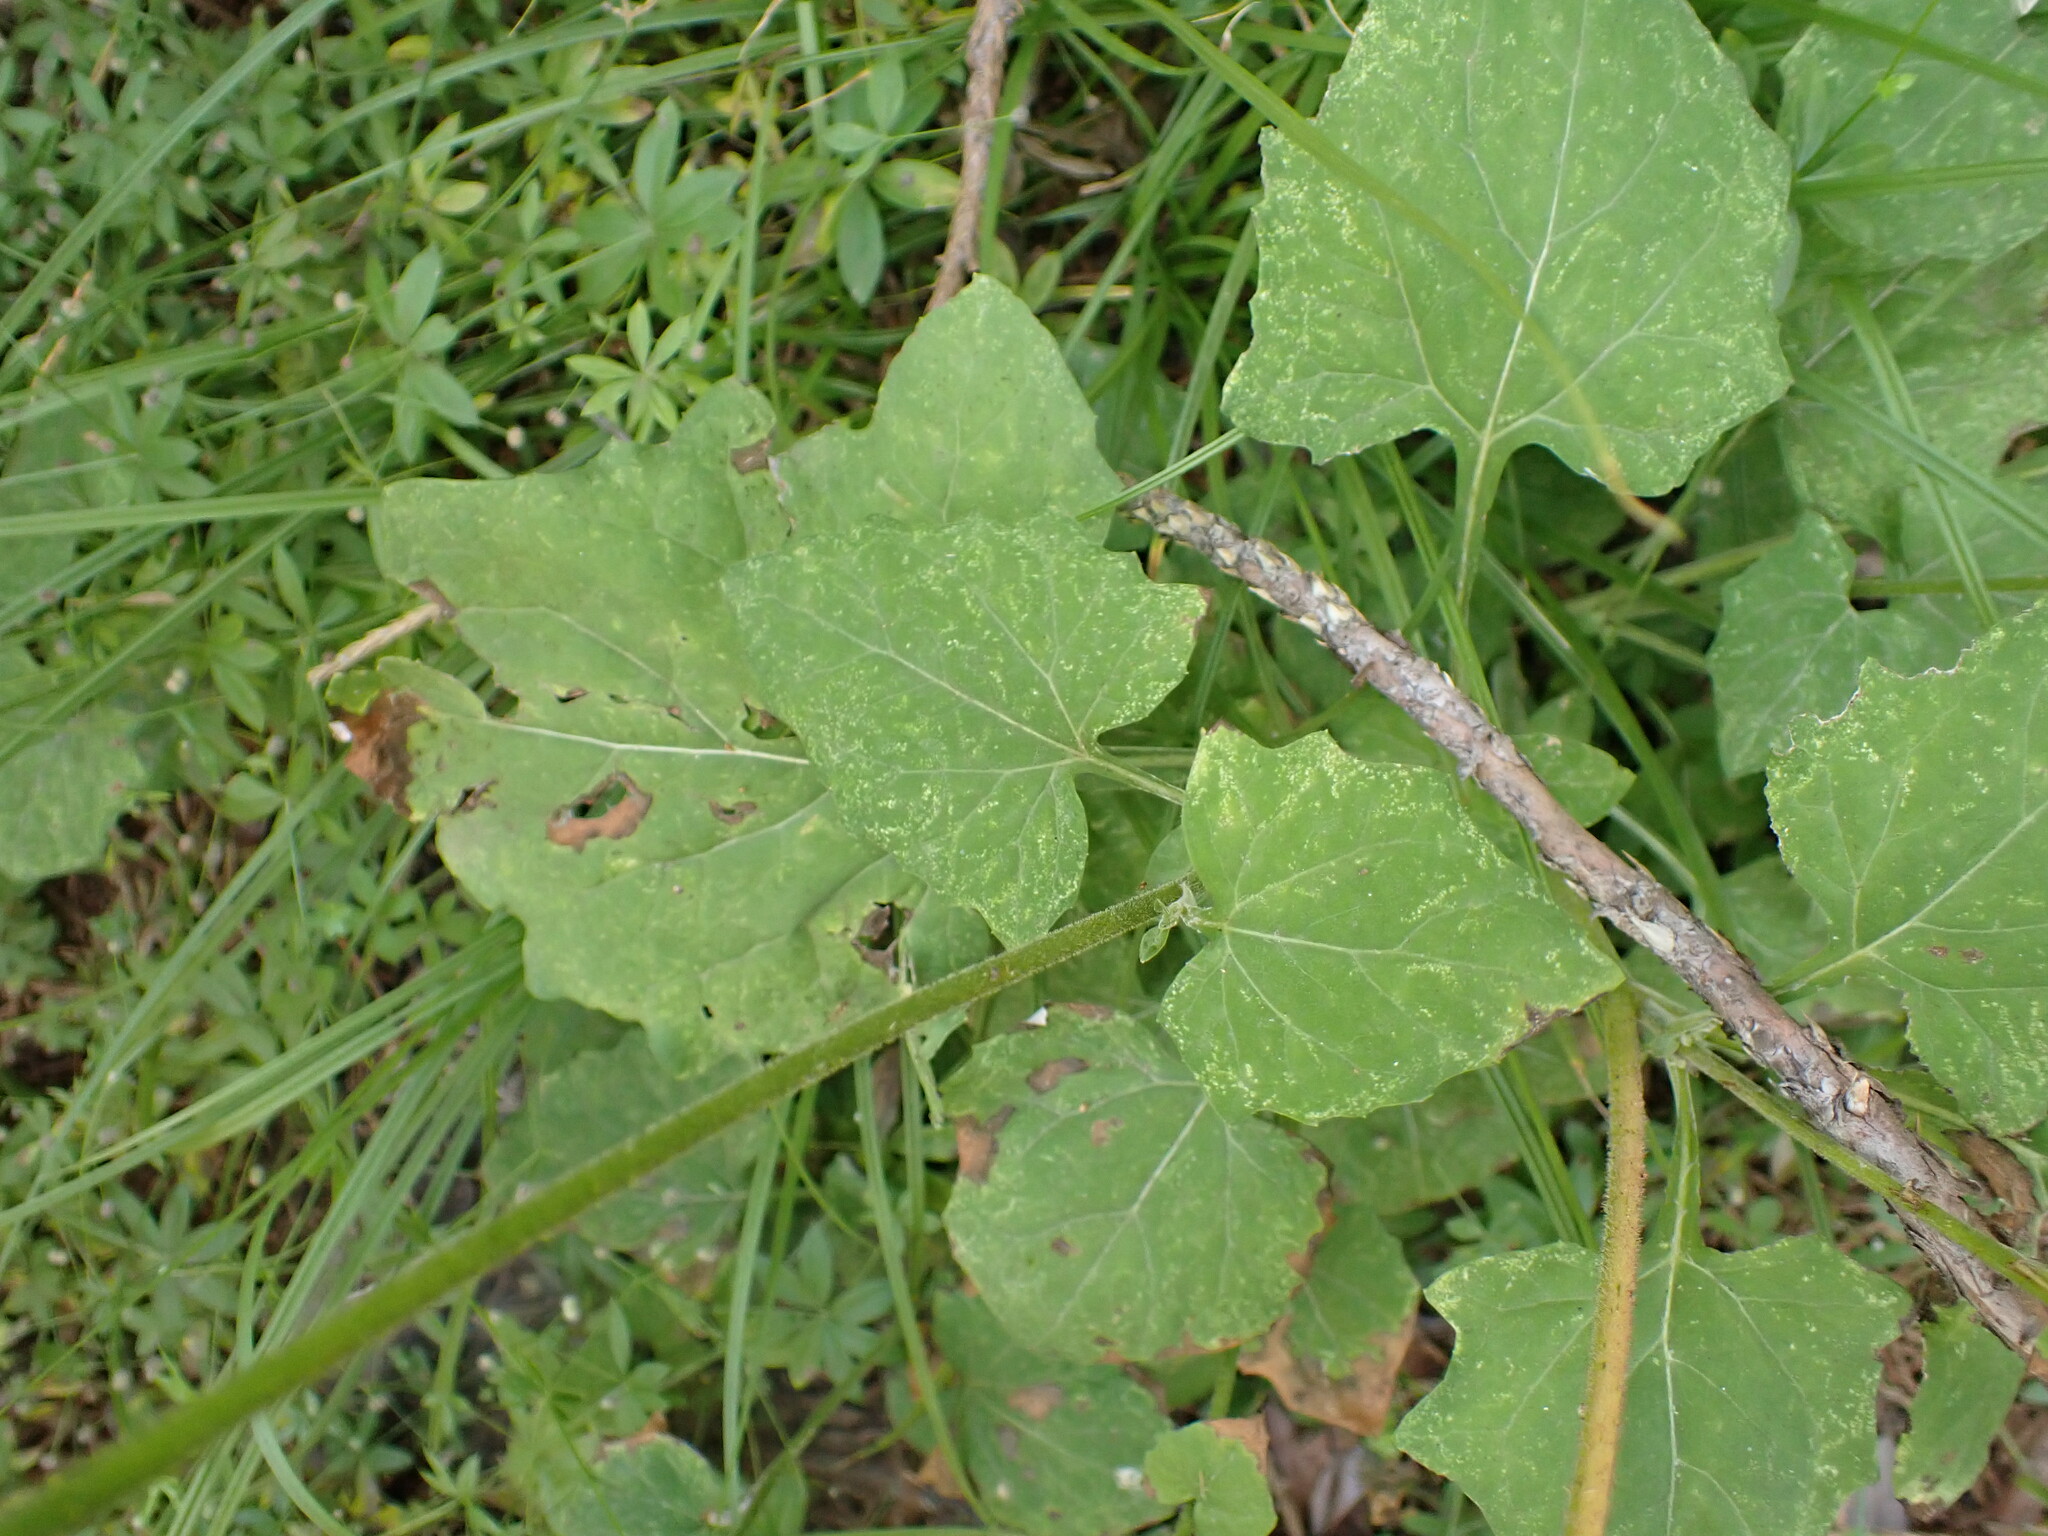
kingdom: Plantae
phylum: Tracheophyta
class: Magnoliopsida
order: Asterales
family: Asteraceae
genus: Adenocaulon
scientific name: Adenocaulon bicolor
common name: Trailplant
